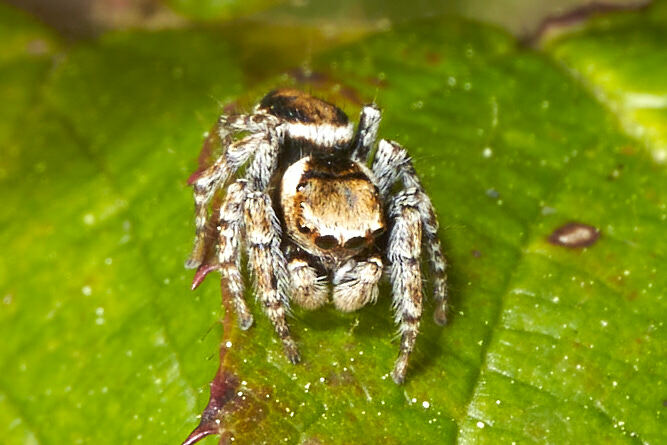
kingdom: Animalia
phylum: Arthropoda
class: Arachnida
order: Araneae
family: Salticidae
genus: Evarcha
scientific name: Evarcha falcata
